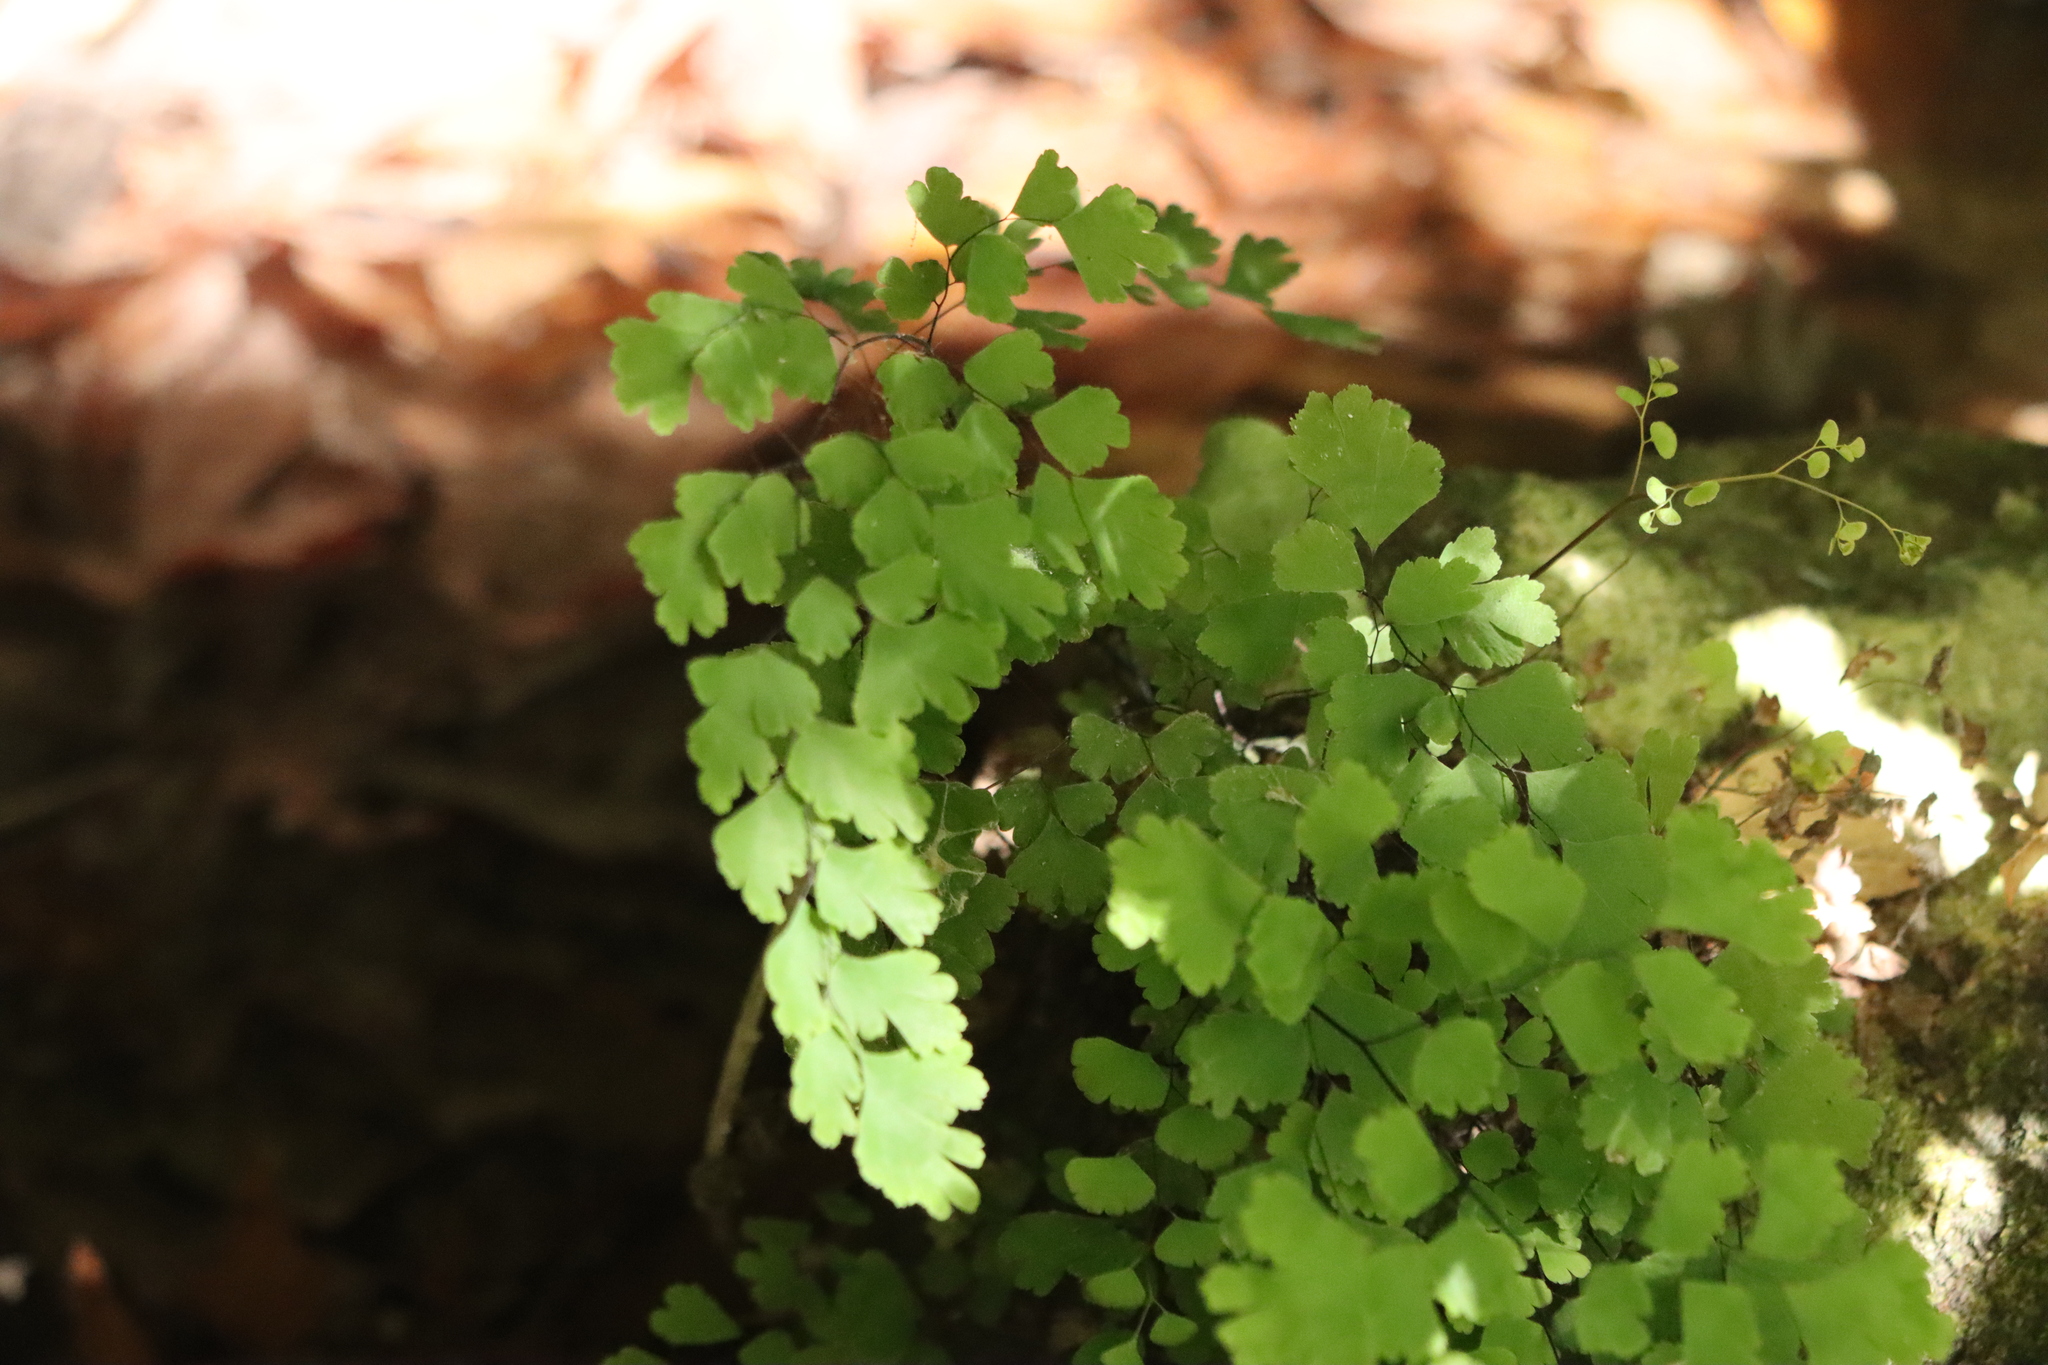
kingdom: Plantae
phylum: Tracheophyta
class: Polypodiopsida
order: Polypodiales
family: Pteridaceae
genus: Adiantum
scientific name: Adiantum capillus-veneris
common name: Maidenhair fern
